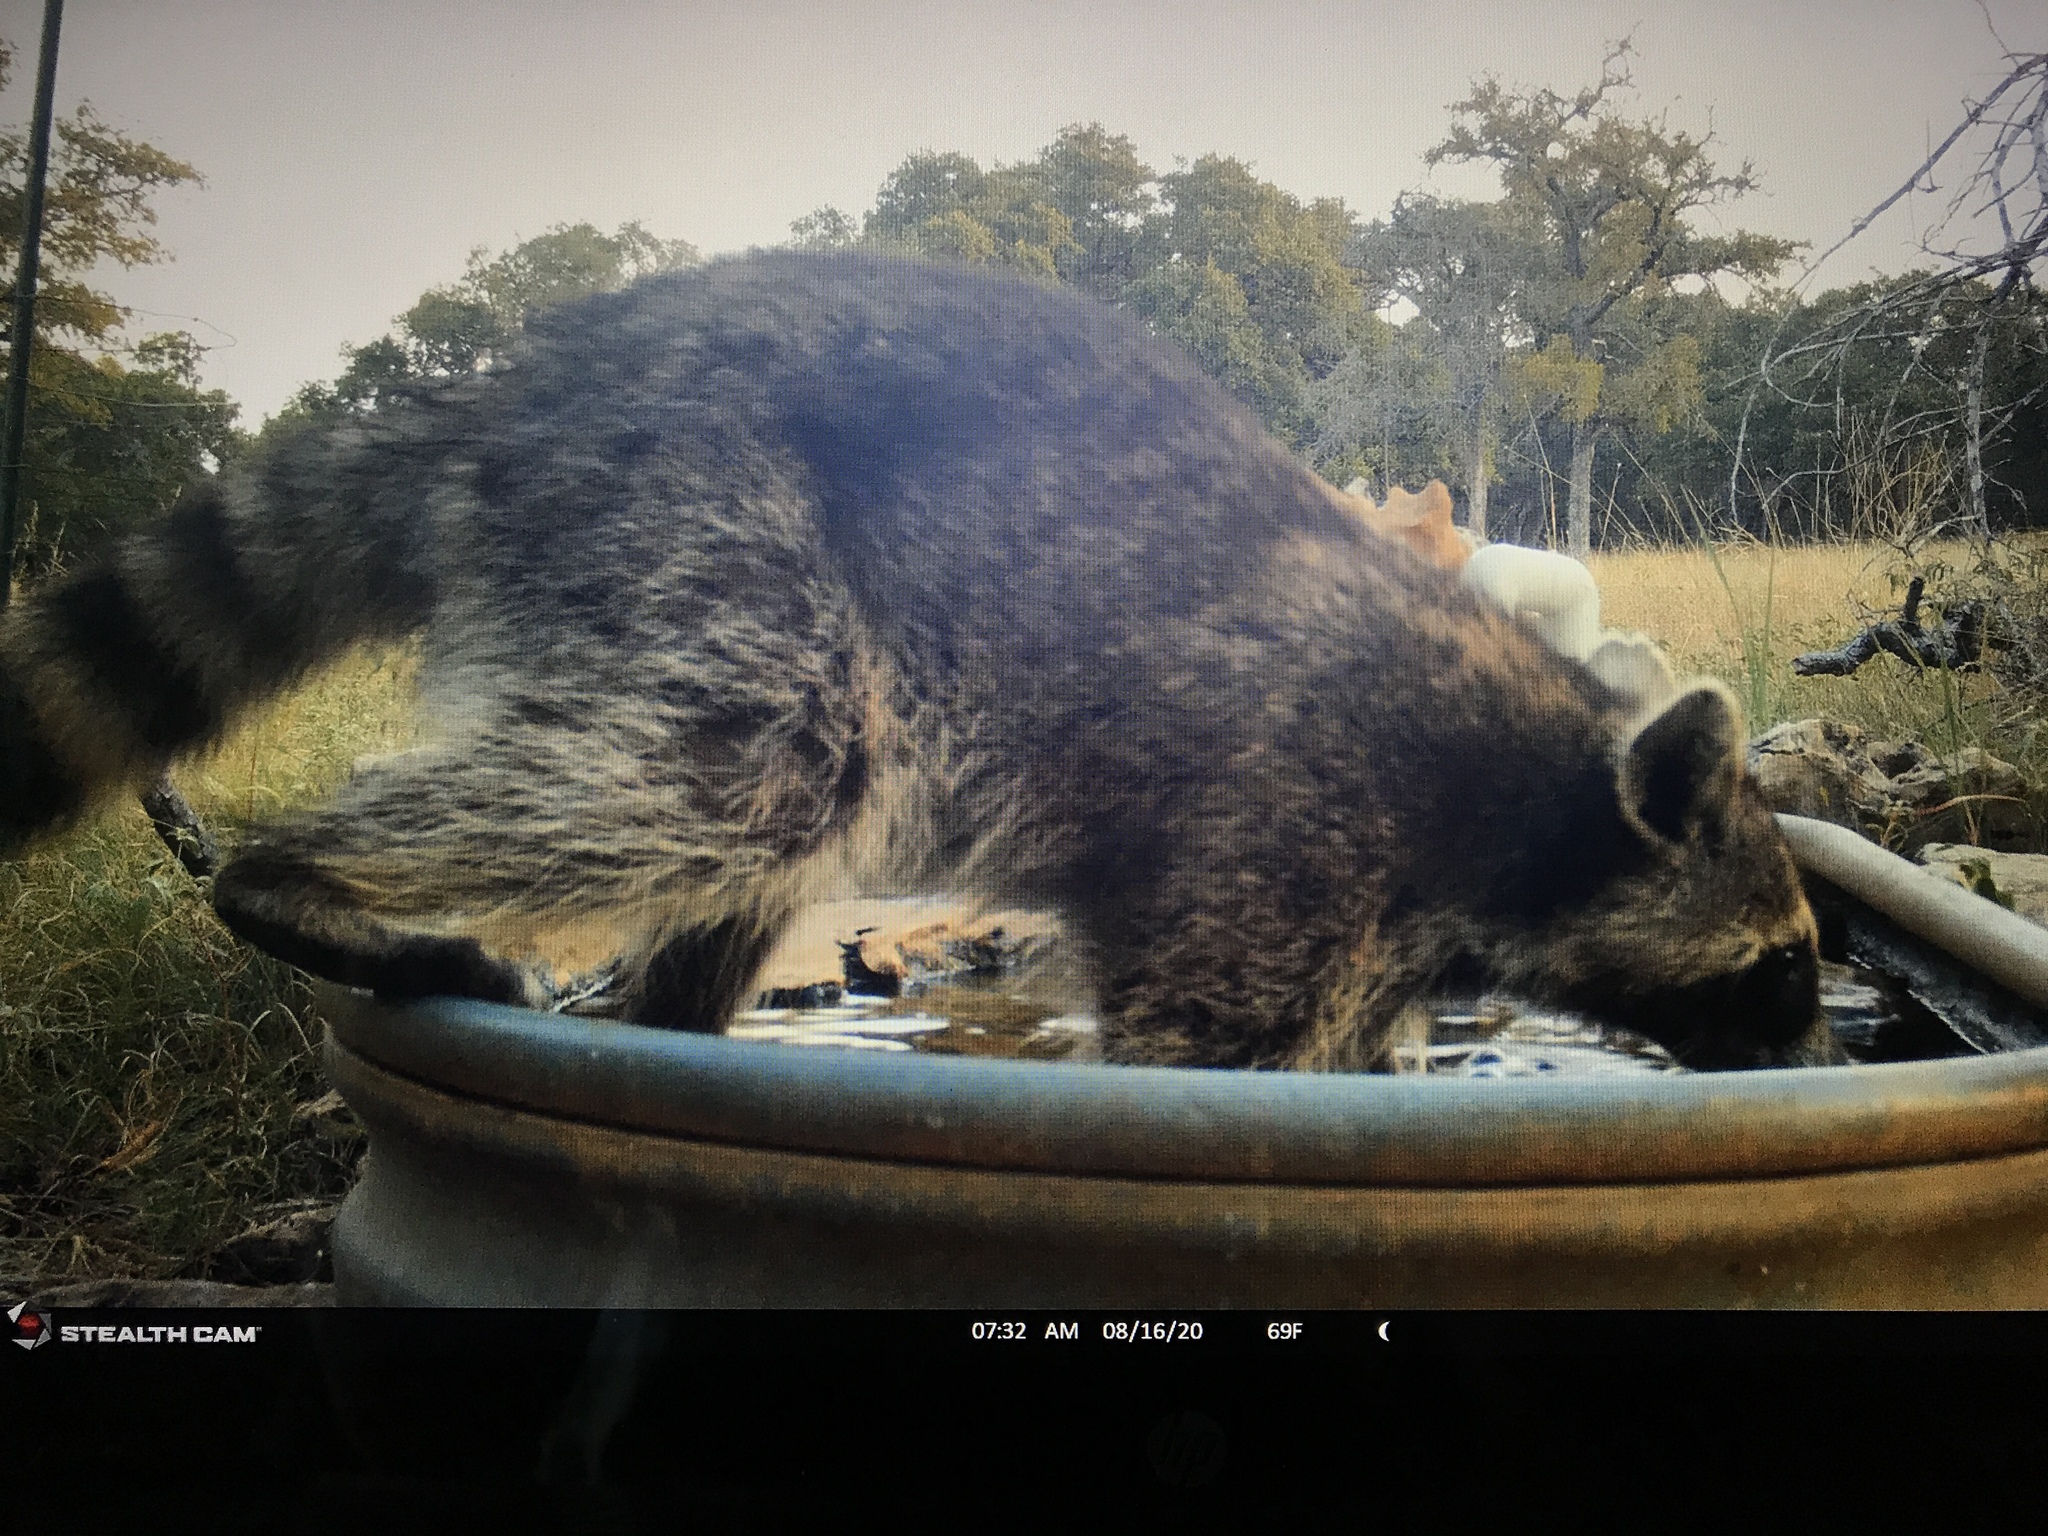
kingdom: Animalia
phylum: Chordata
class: Mammalia
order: Carnivora
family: Procyonidae
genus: Procyon
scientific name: Procyon lotor
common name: Raccoon
